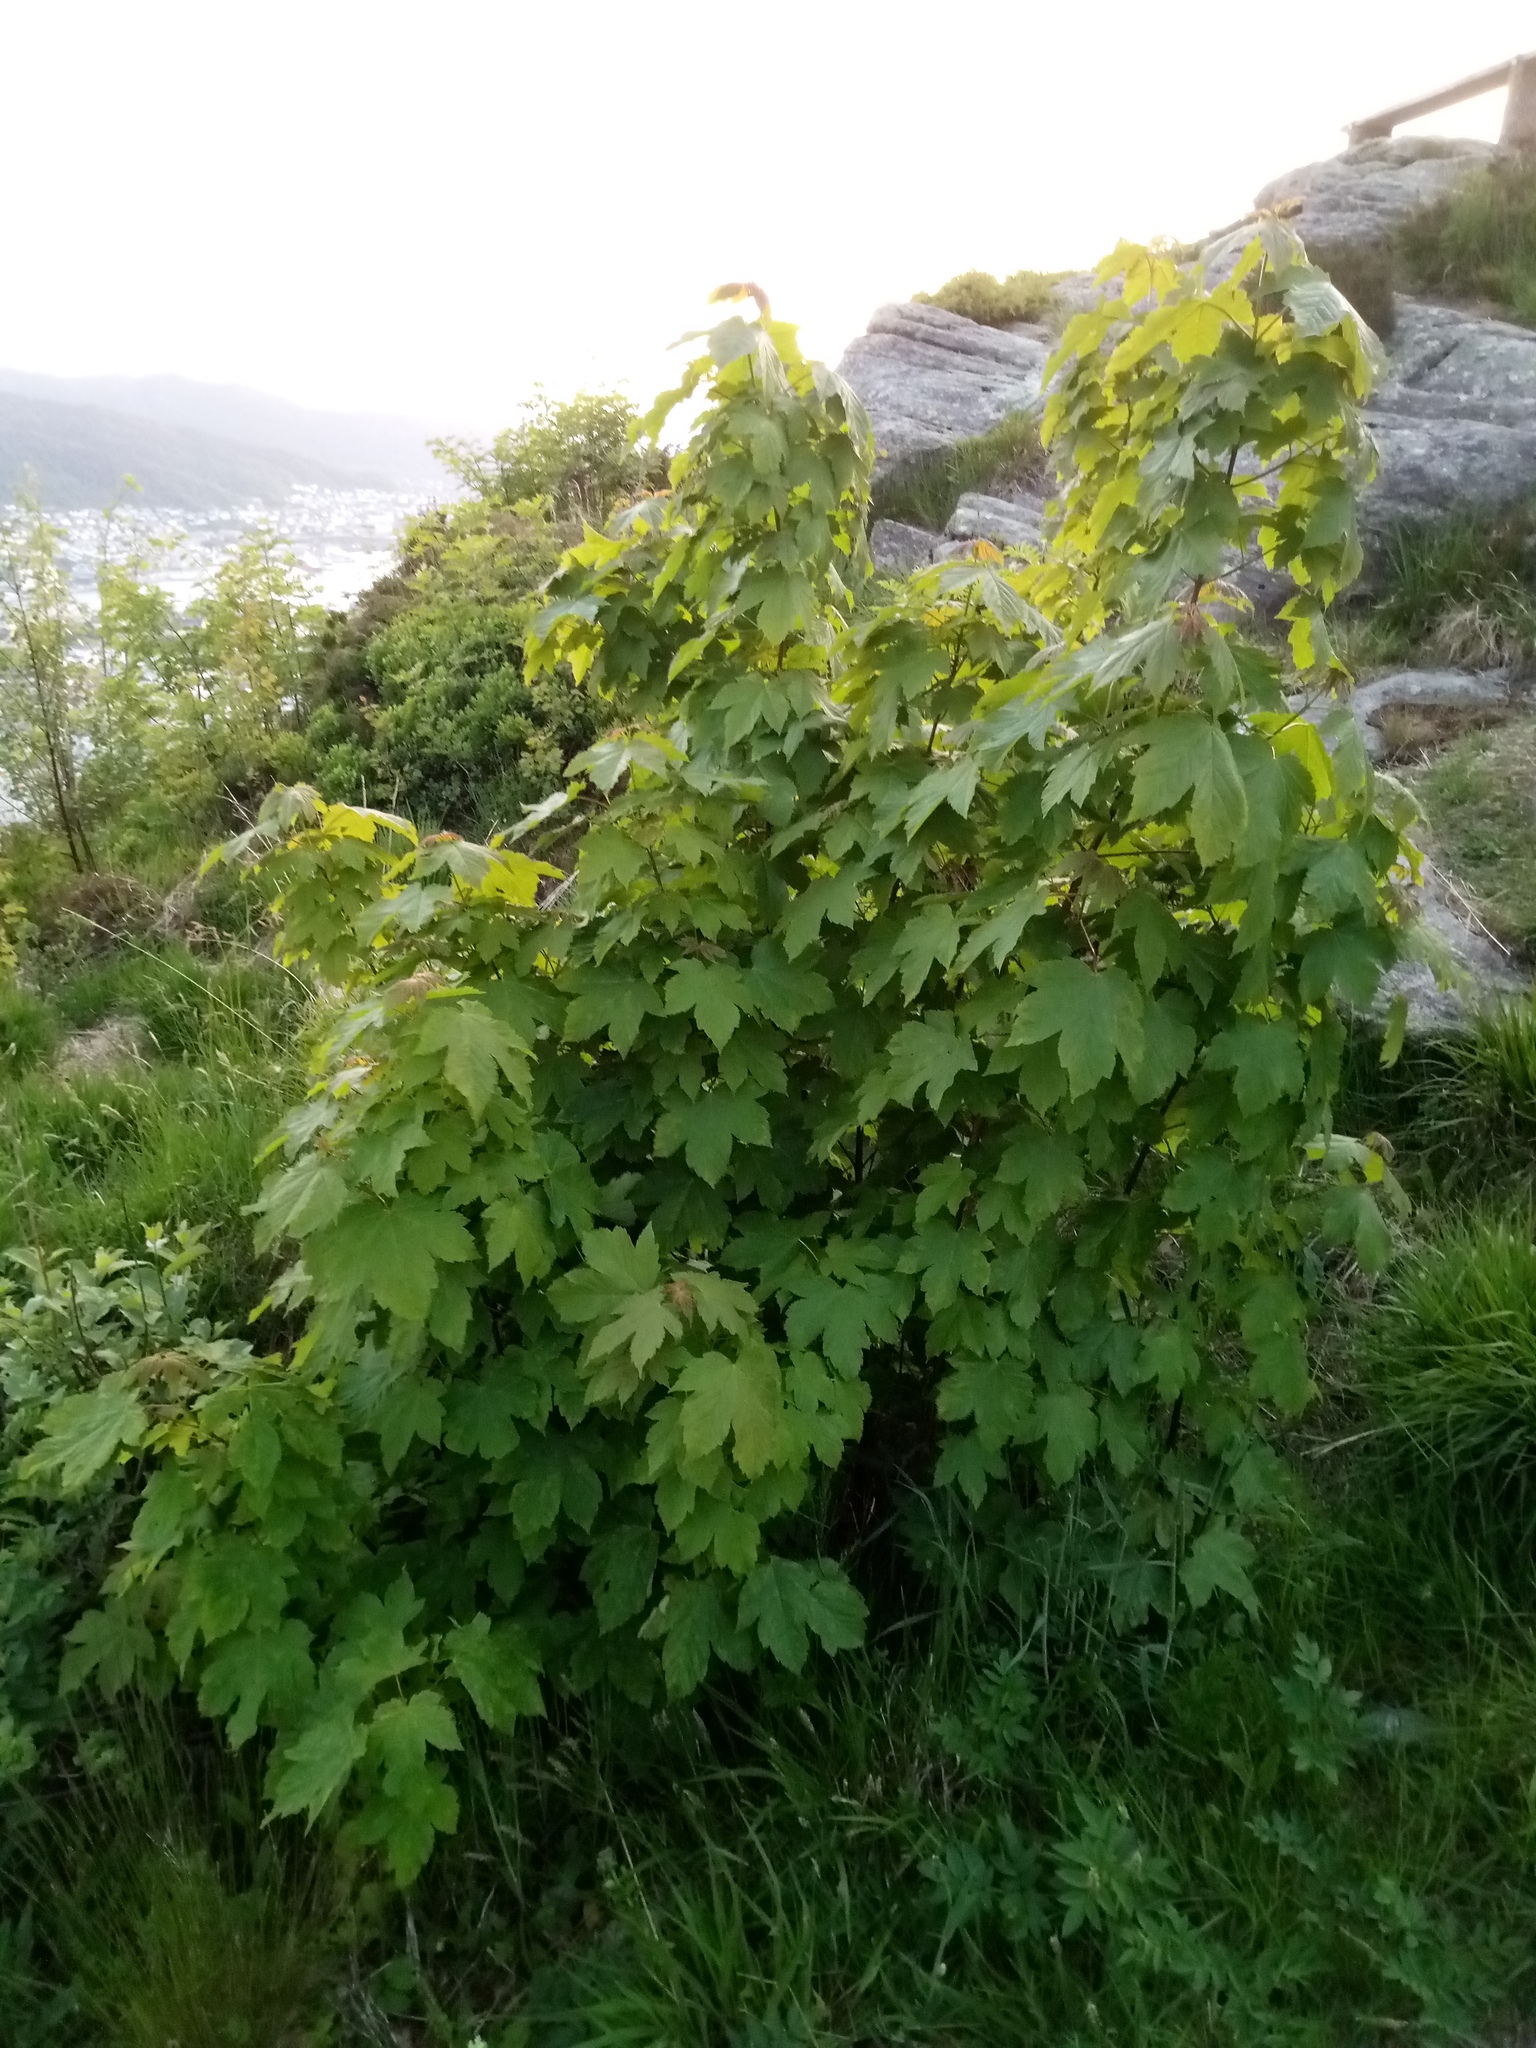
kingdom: Plantae
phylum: Tracheophyta
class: Magnoliopsida
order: Sapindales
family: Sapindaceae
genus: Acer
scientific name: Acer pseudoplatanus
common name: Sycamore
